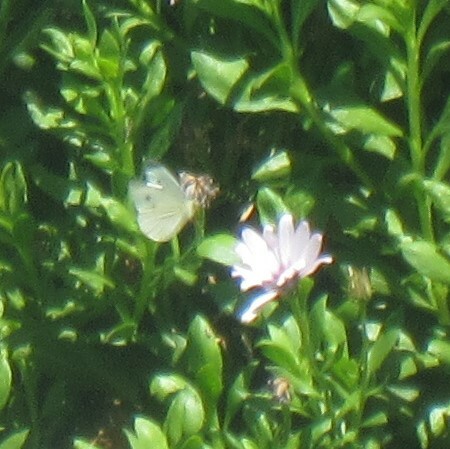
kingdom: Animalia
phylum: Arthropoda
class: Insecta
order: Lepidoptera
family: Pieridae
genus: Pieris
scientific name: Pieris rapae
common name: Small white
